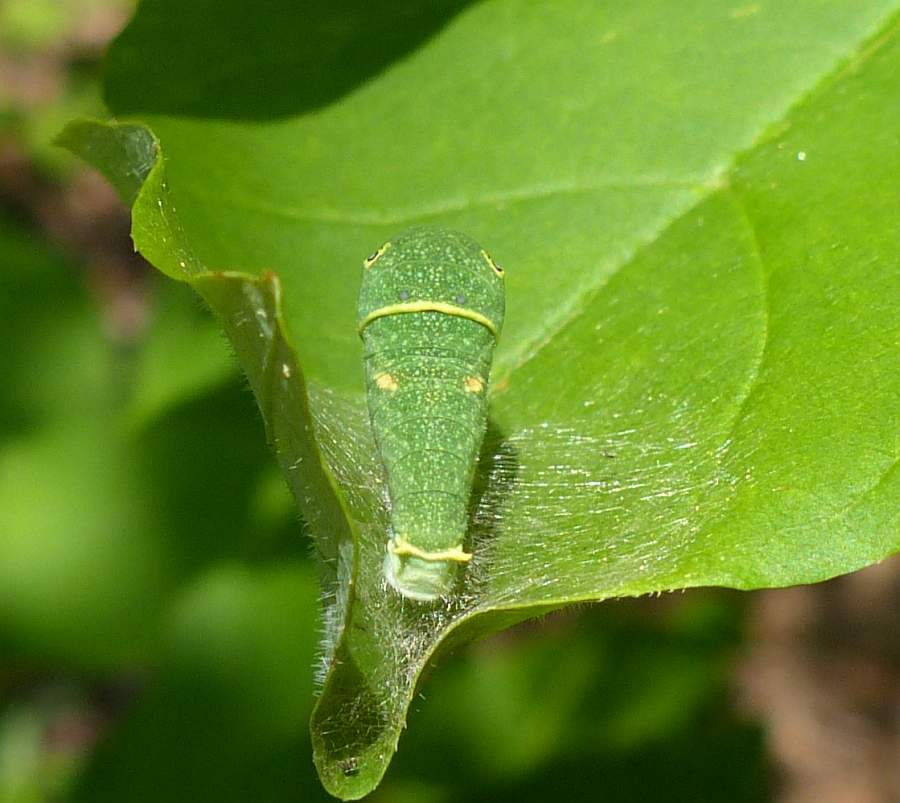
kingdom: Animalia
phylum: Arthropoda
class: Insecta
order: Lepidoptera
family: Papilionidae
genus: Papilio
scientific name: Papilio canadensis
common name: Canadian tiger swallowtail
